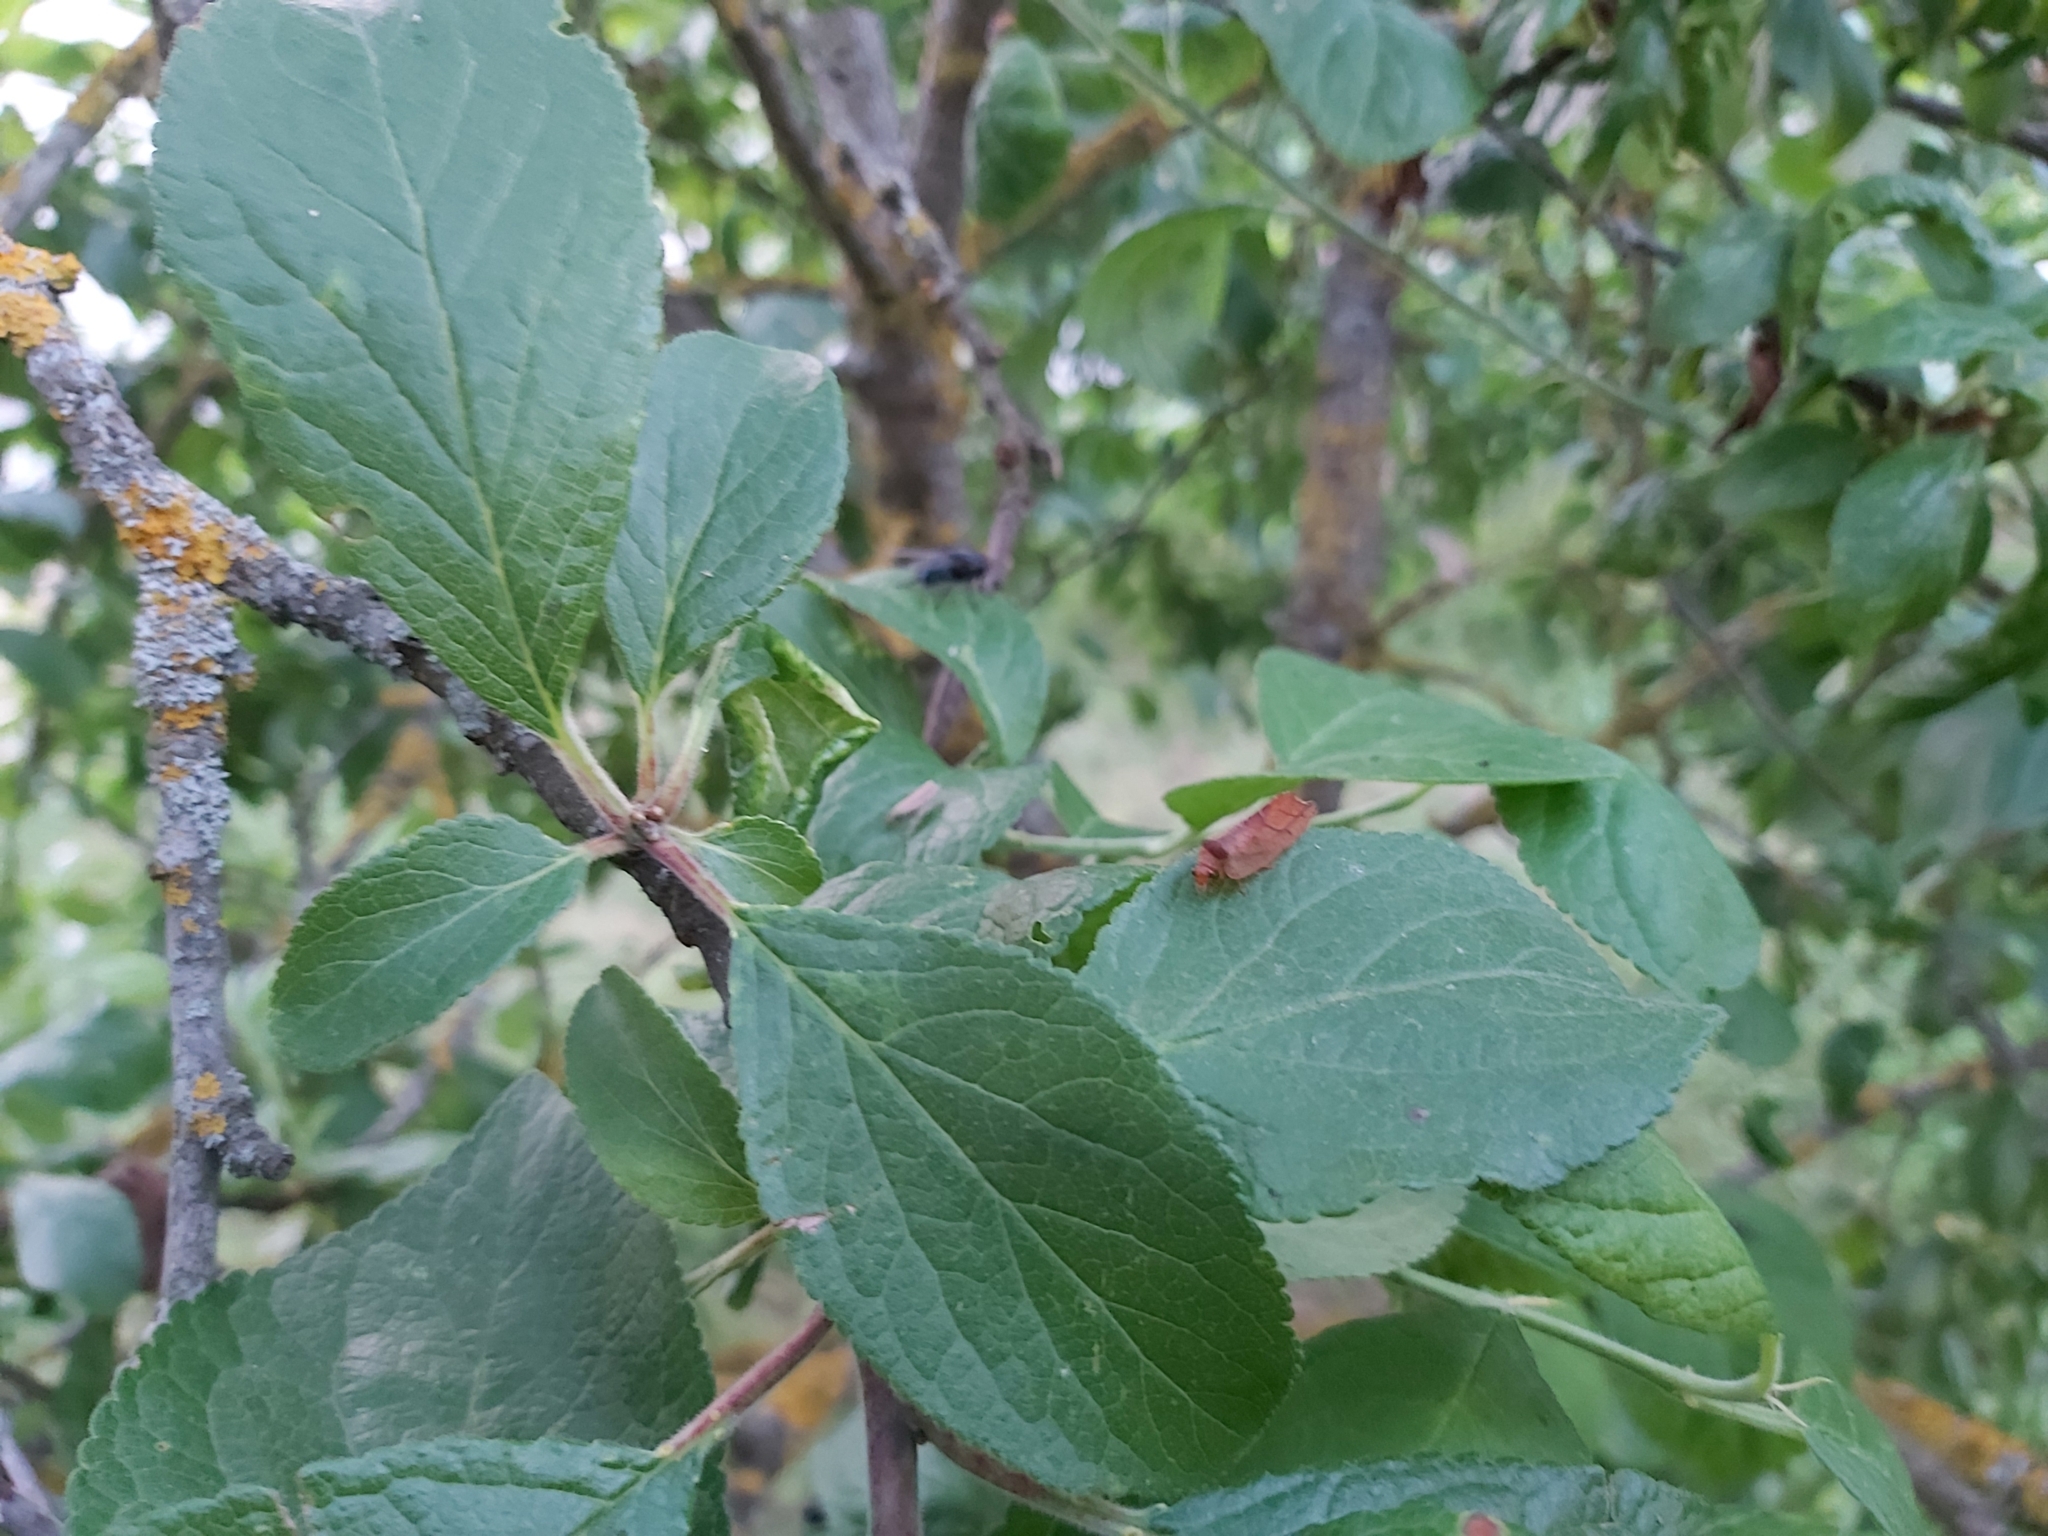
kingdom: Animalia
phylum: Arthropoda
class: Insecta
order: Neuroptera
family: Hemerobiidae
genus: Drepanepteryx
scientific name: Drepanepteryx phalaenoides
